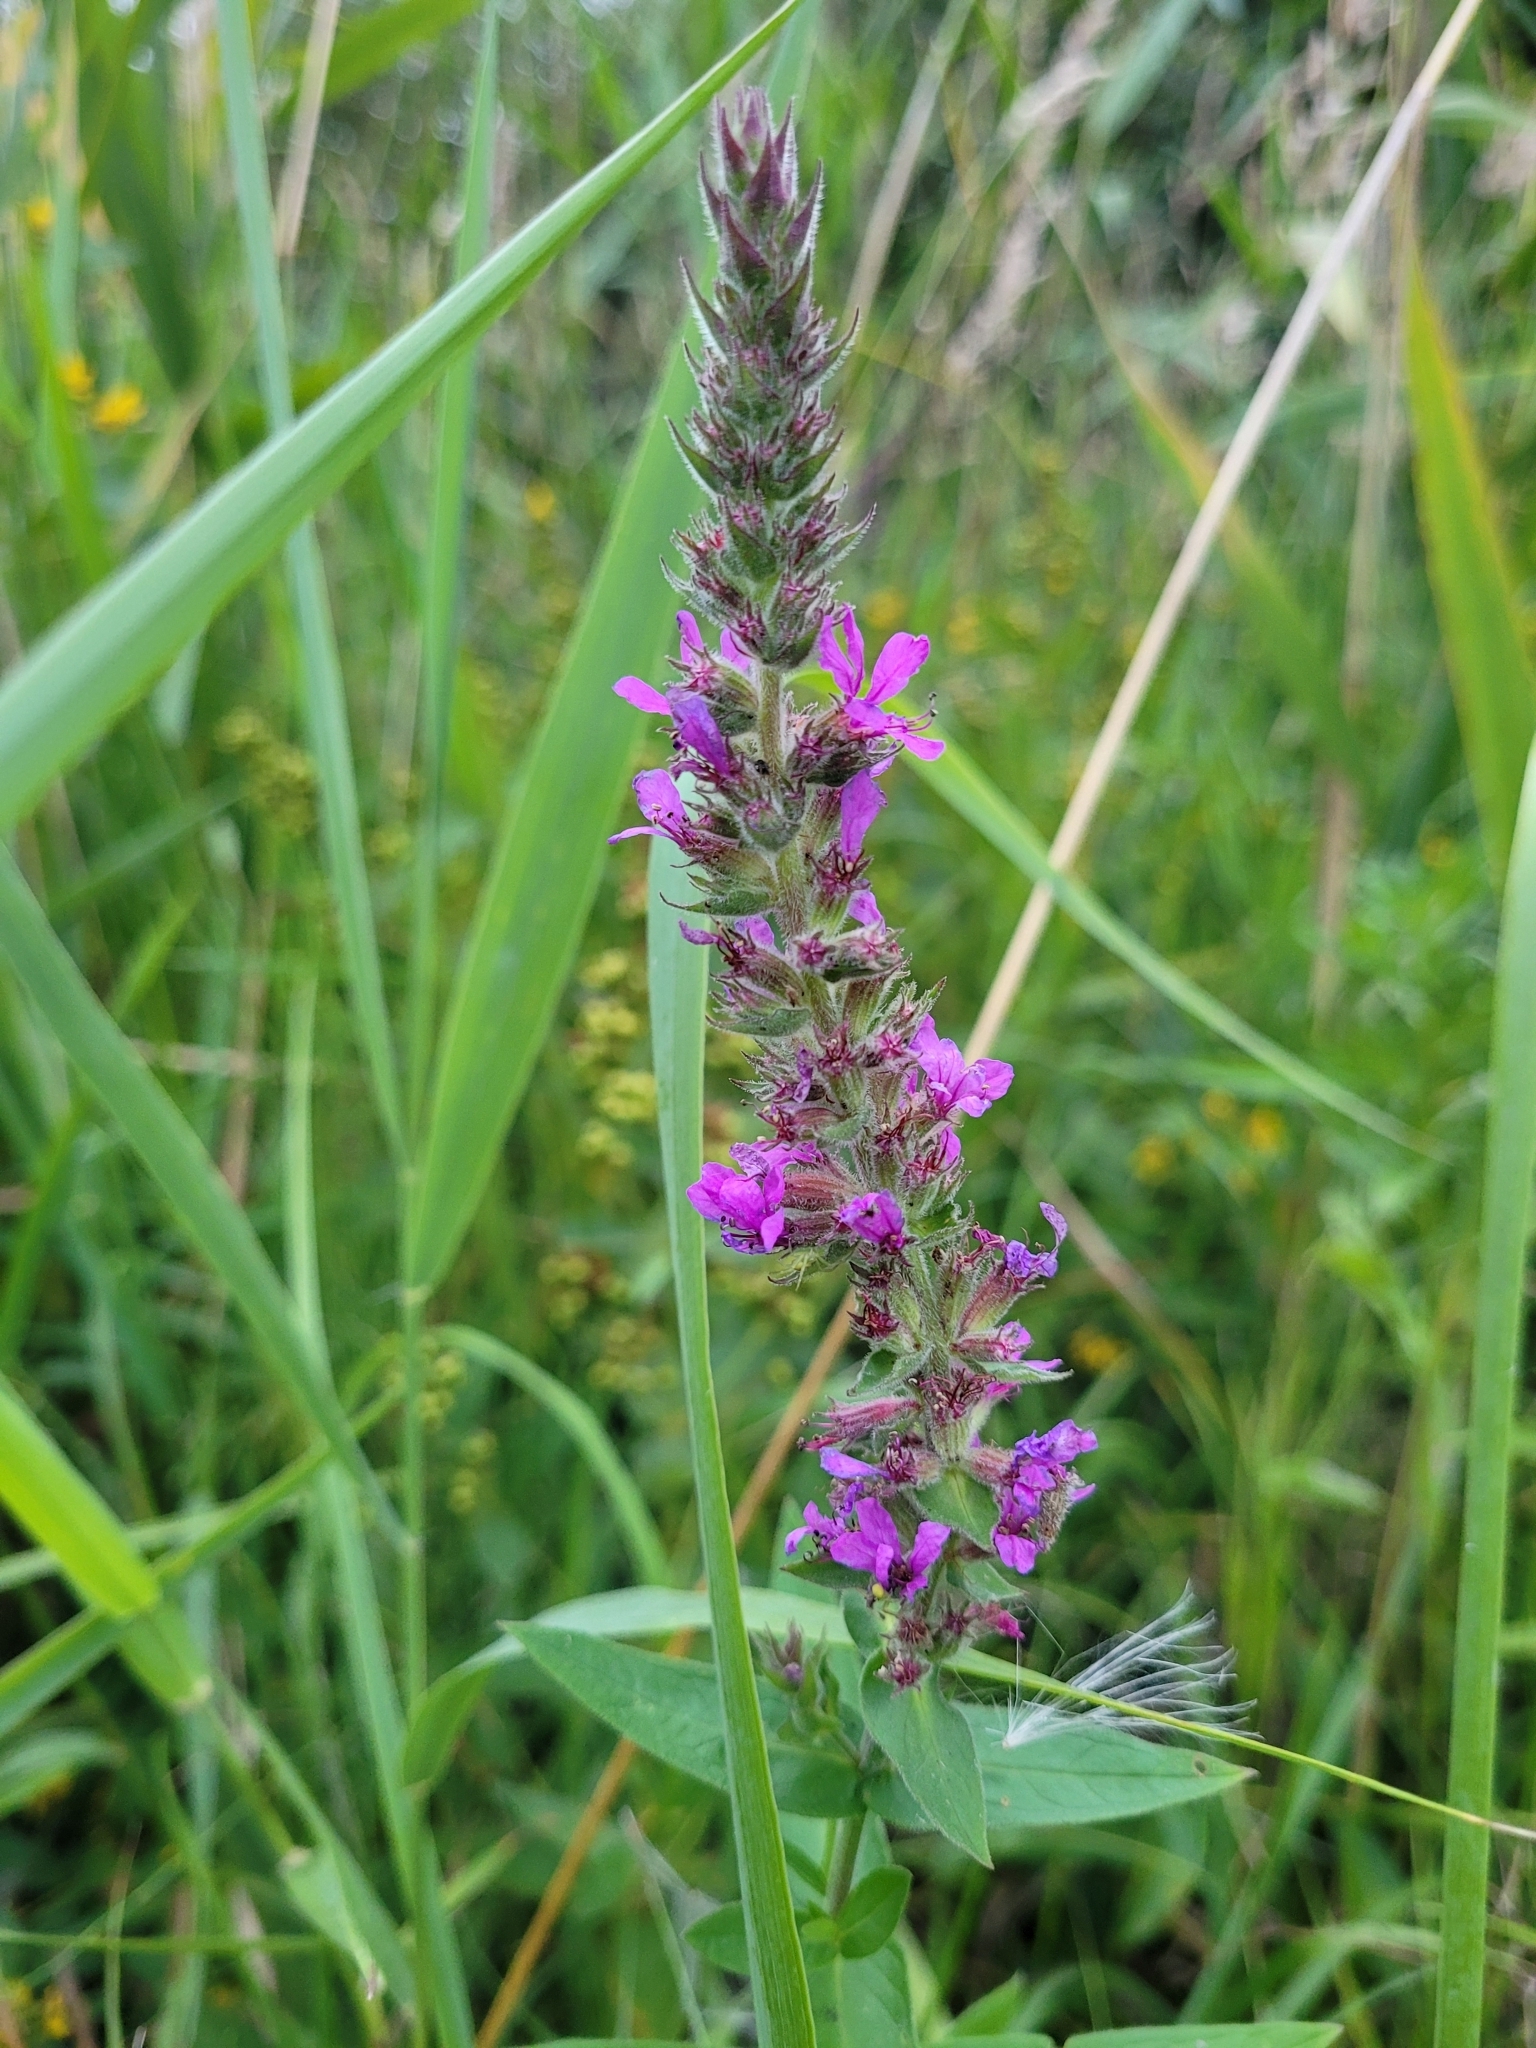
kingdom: Plantae
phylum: Tracheophyta
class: Magnoliopsida
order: Myrtales
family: Lythraceae
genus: Lythrum
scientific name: Lythrum salicaria
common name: Purple loosestrife
